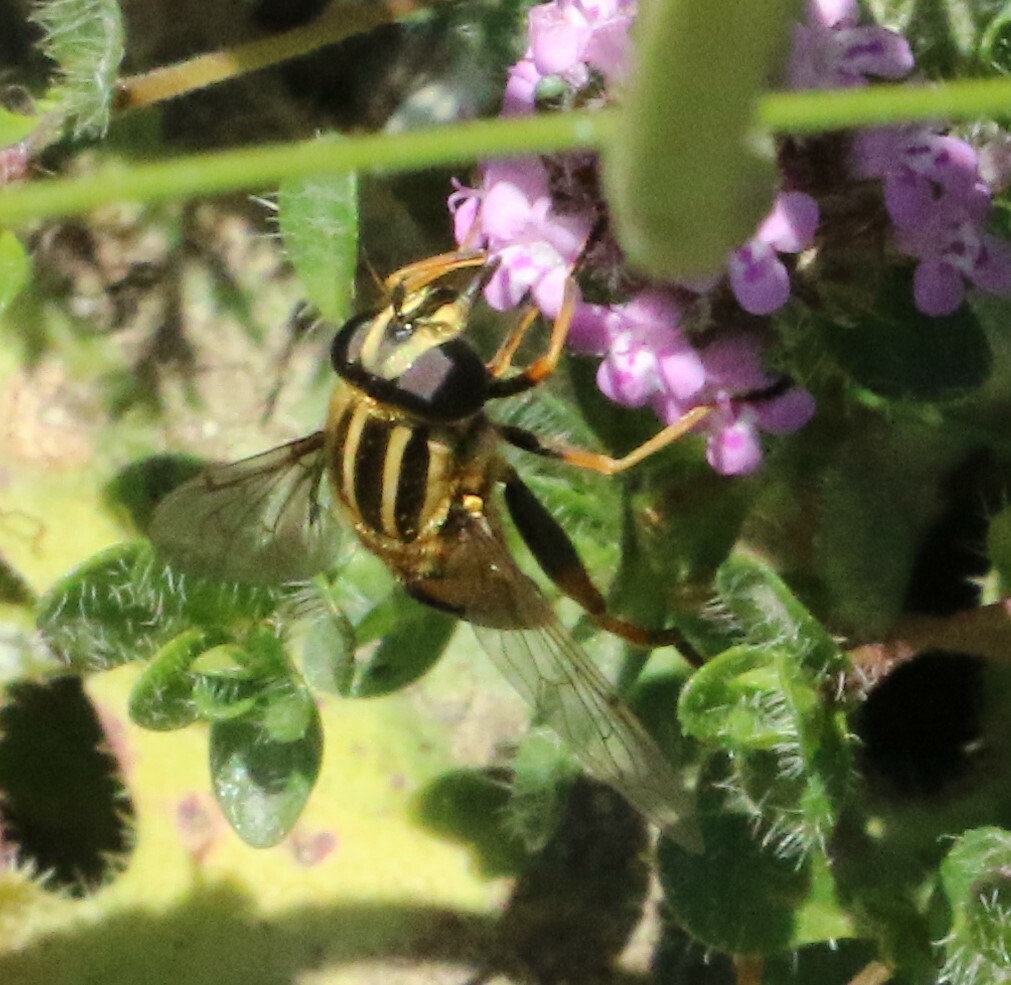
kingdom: Animalia
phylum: Arthropoda
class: Insecta
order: Diptera
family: Syrphidae
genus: Helophilus
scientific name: Helophilus pendulus
